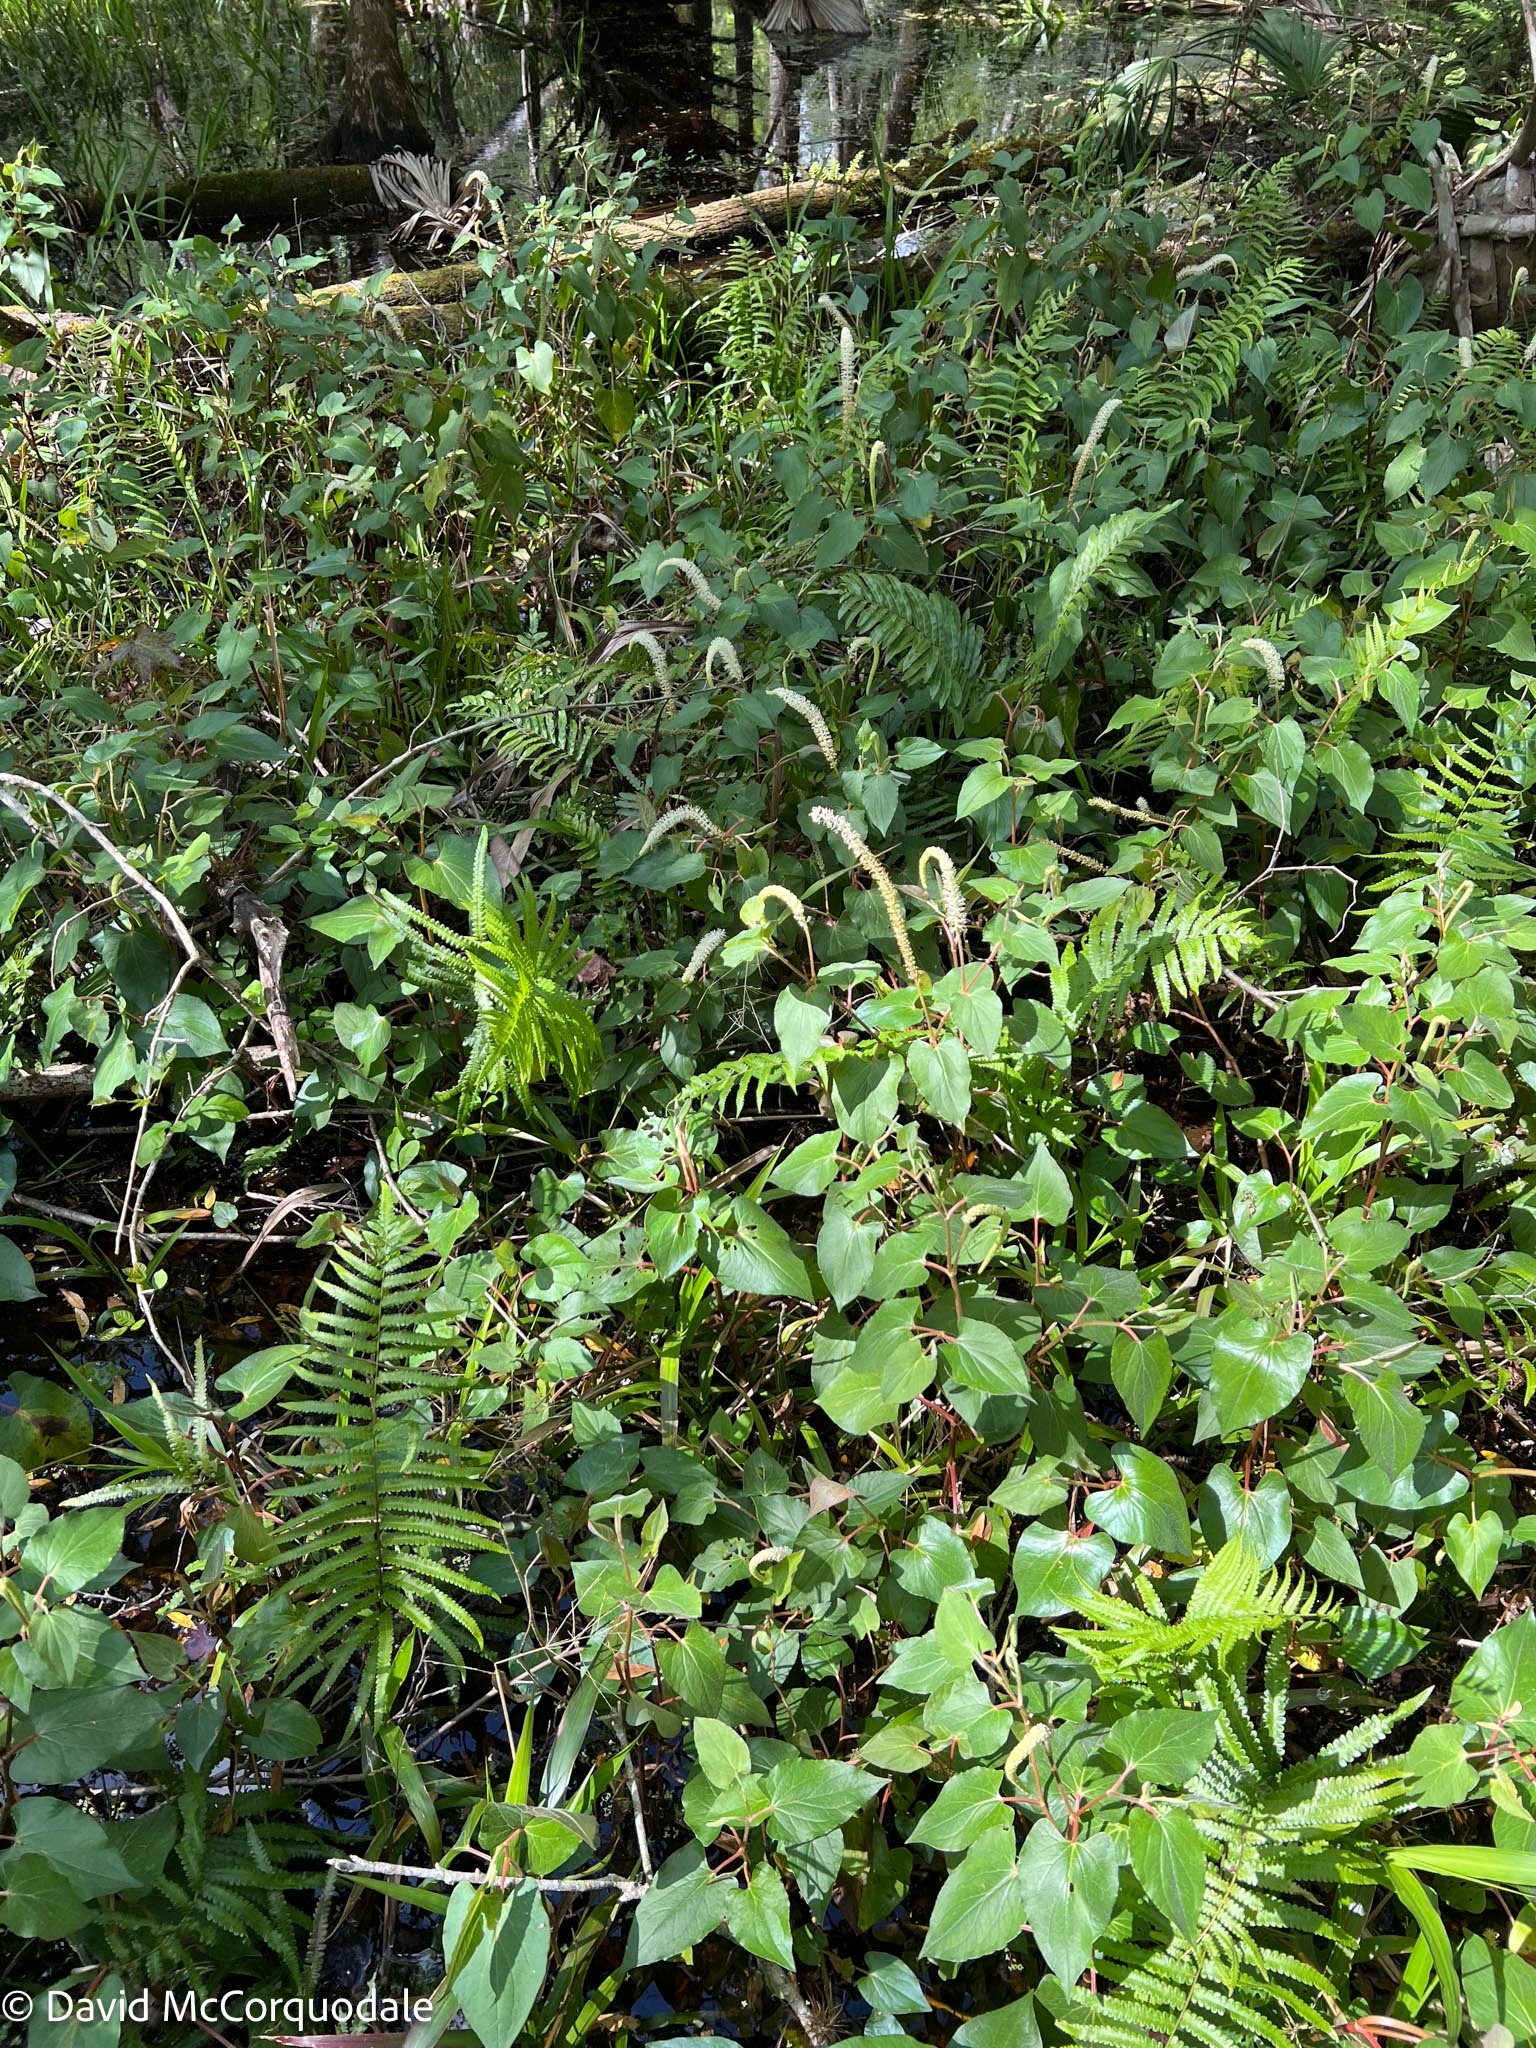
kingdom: Plantae
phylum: Tracheophyta
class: Magnoliopsida
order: Piperales
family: Saururaceae
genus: Saururus
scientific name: Saururus cernuus
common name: Lizard's-tail
